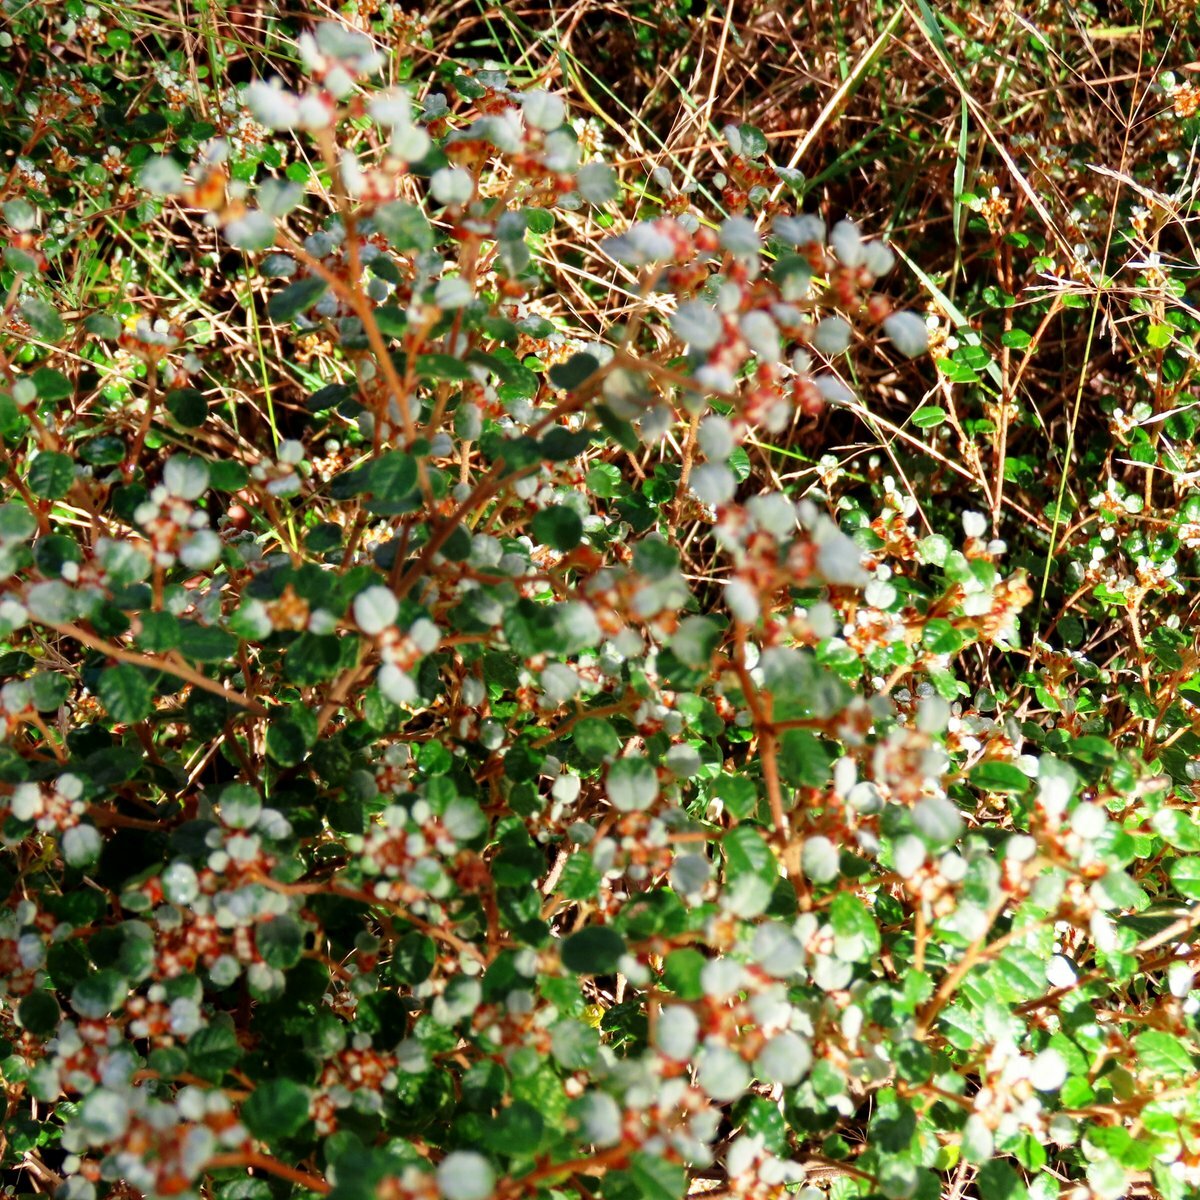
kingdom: Plantae
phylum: Tracheophyta
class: Magnoliopsida
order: Rosales
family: Rhamnaceae
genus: Spyridium
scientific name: Spyridium parvifolium
